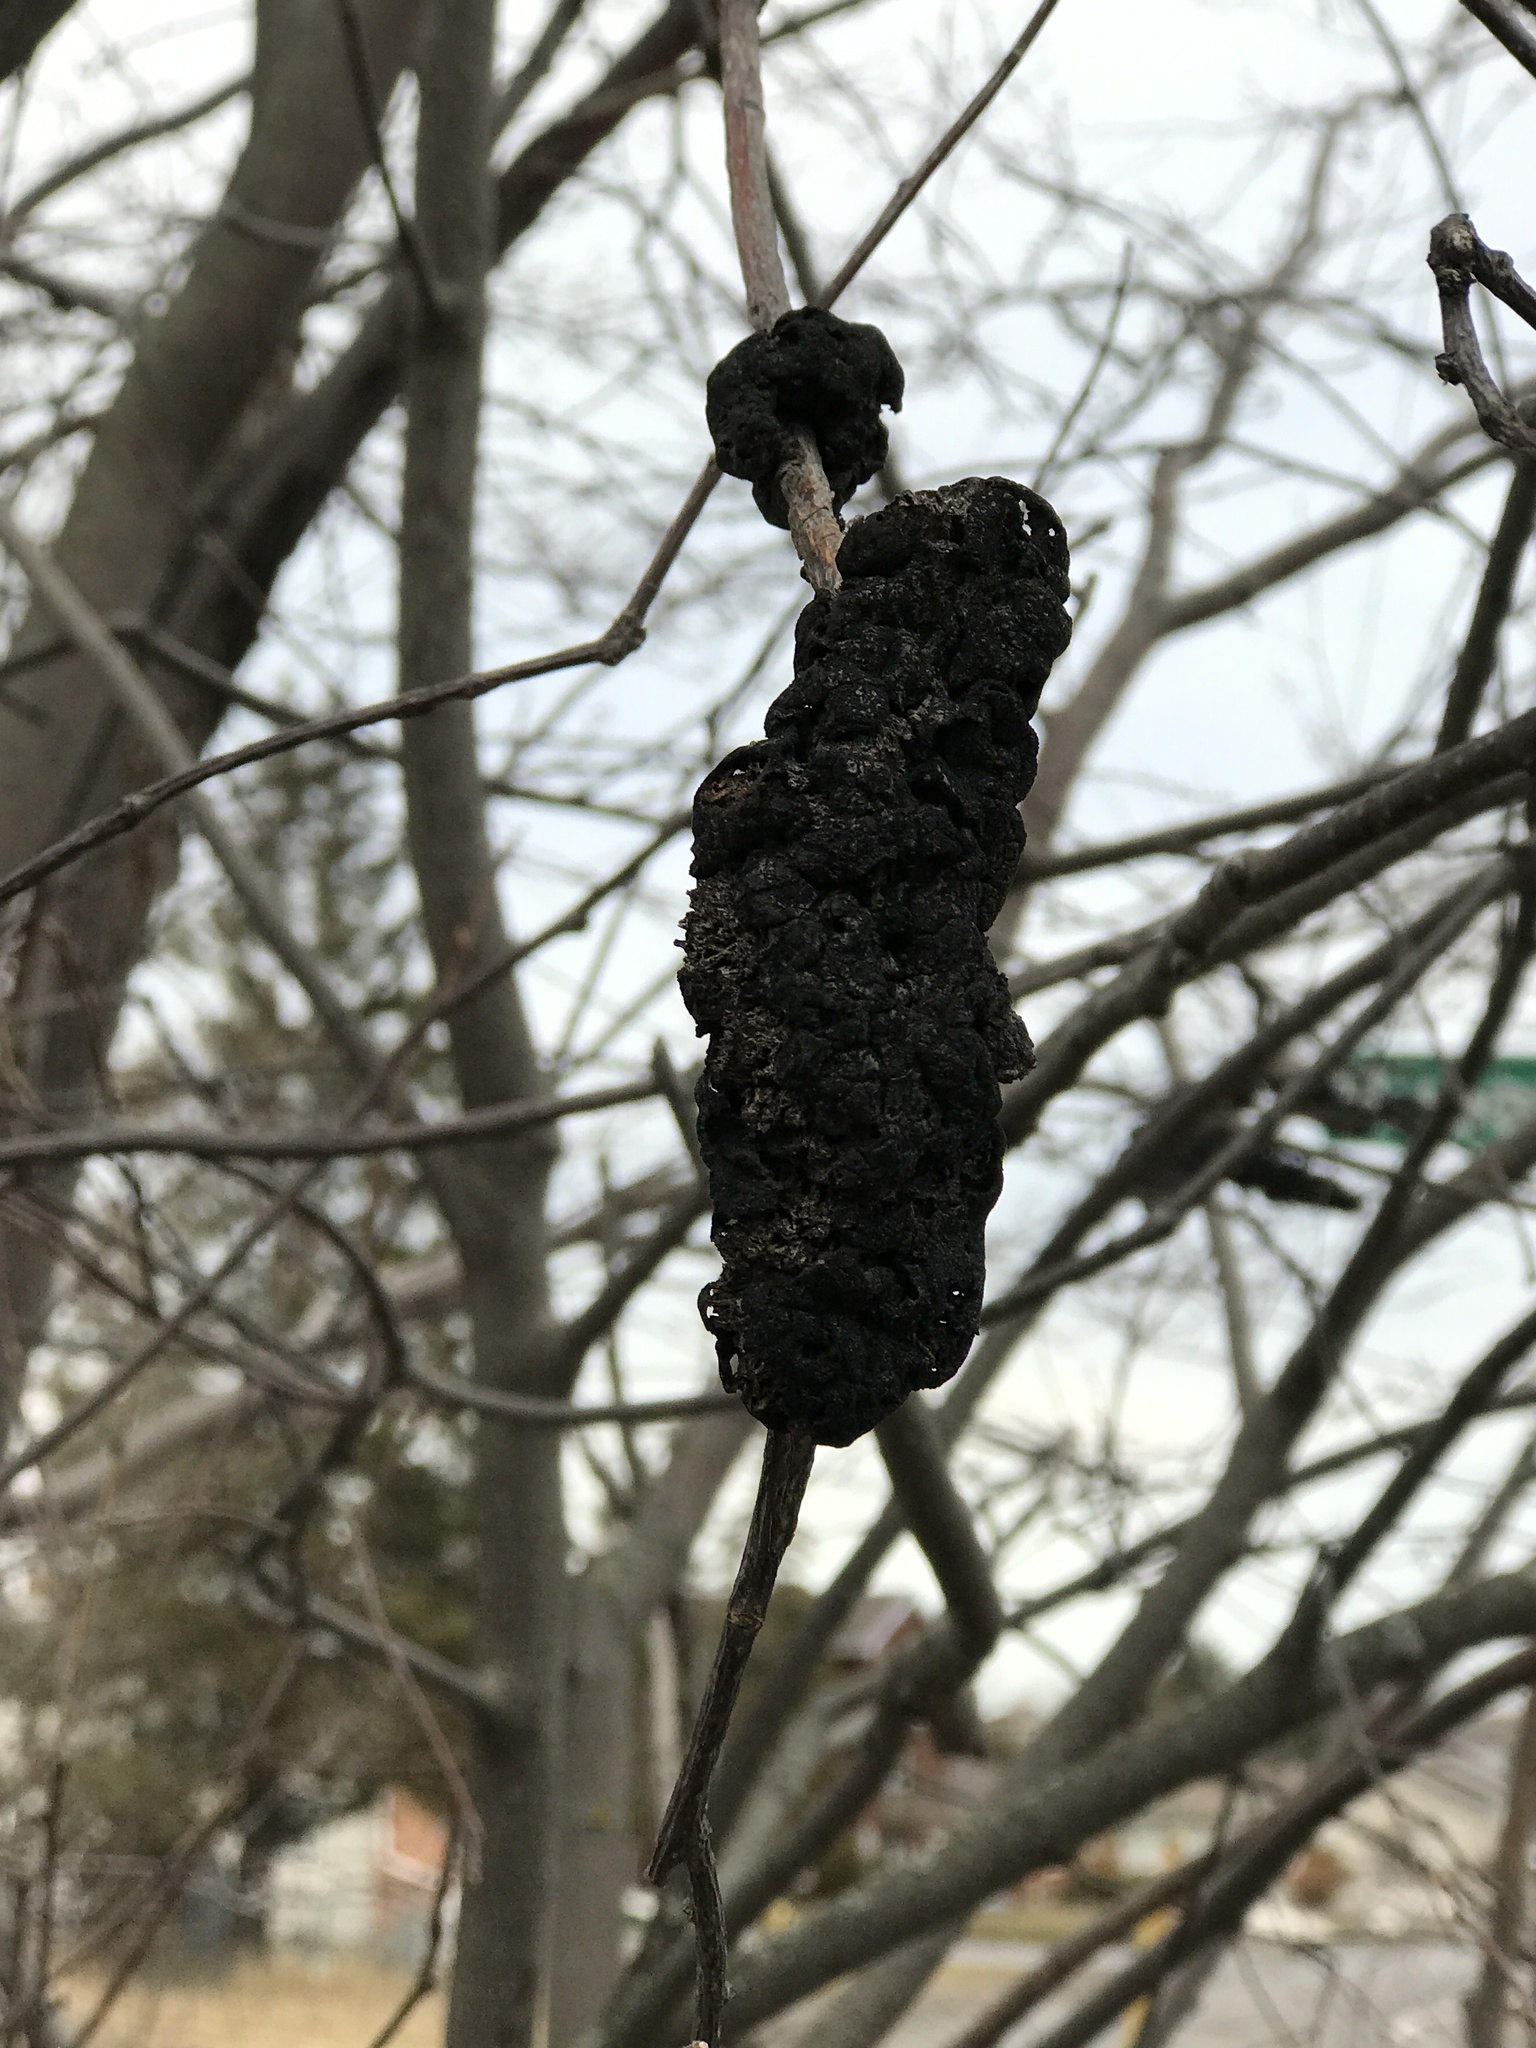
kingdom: Fungi
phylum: Ascomycota
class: Dothideomycetes
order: Venturiales
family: Venturiaceae
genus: Apiosporina
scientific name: Apiosporina morbosa
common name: Black knot
